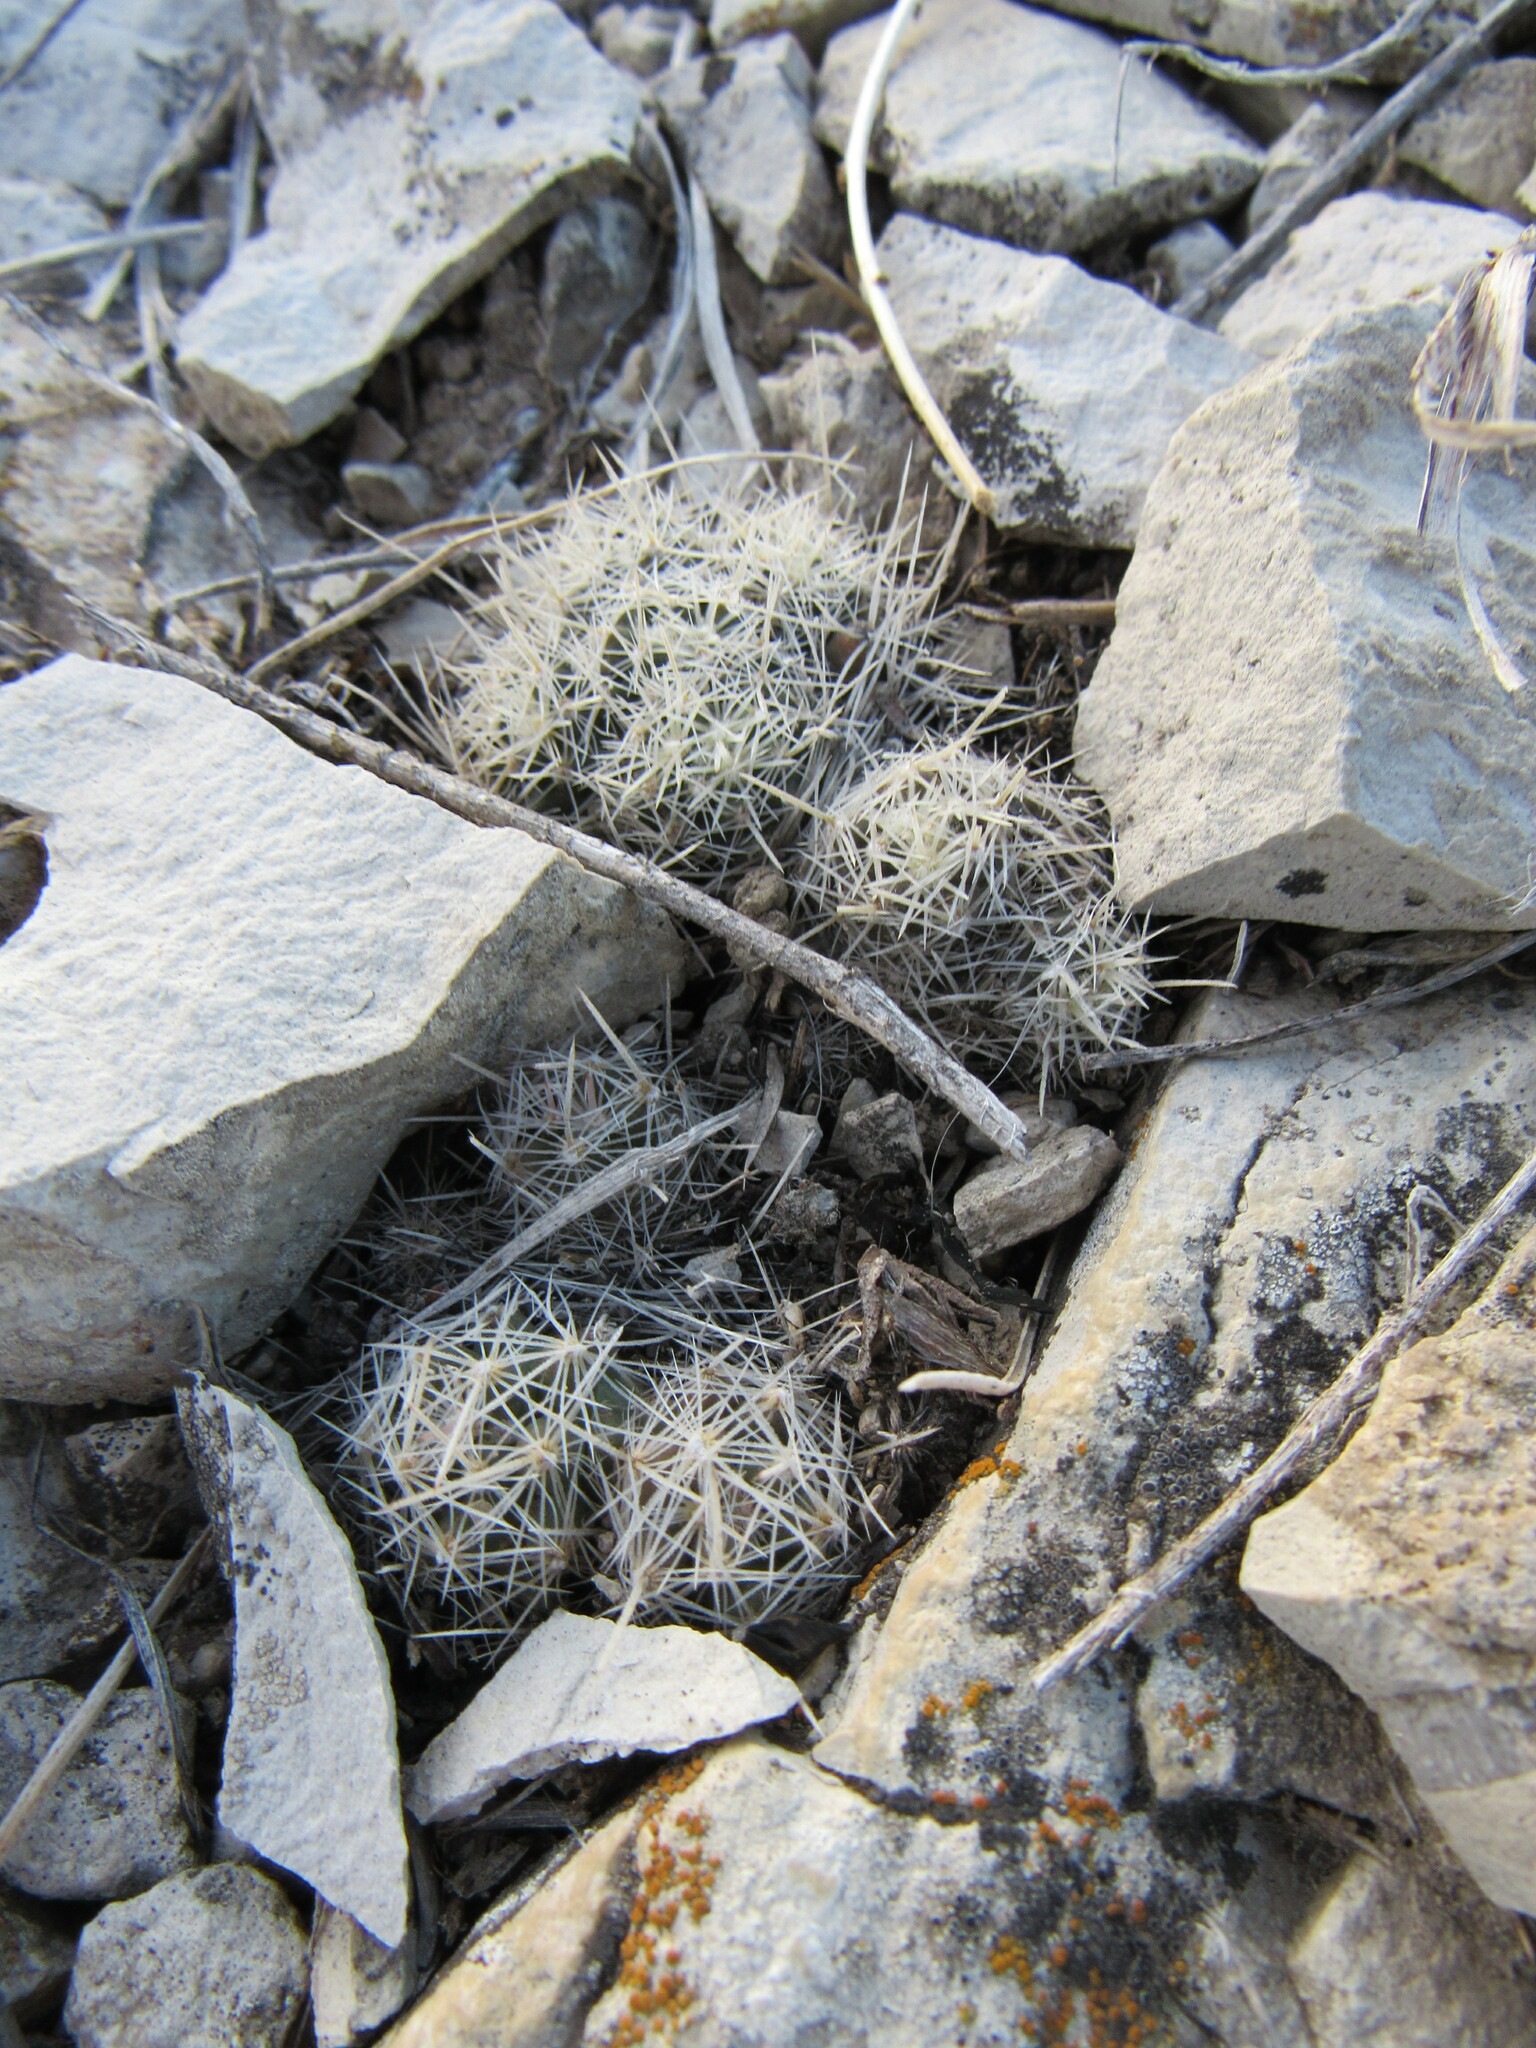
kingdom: Plantae
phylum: Tracheophyta
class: Magnoliopsida
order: Caryophyllales
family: Cactaceae
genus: Pelecyphora
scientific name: Pelecyphora missouriensis
